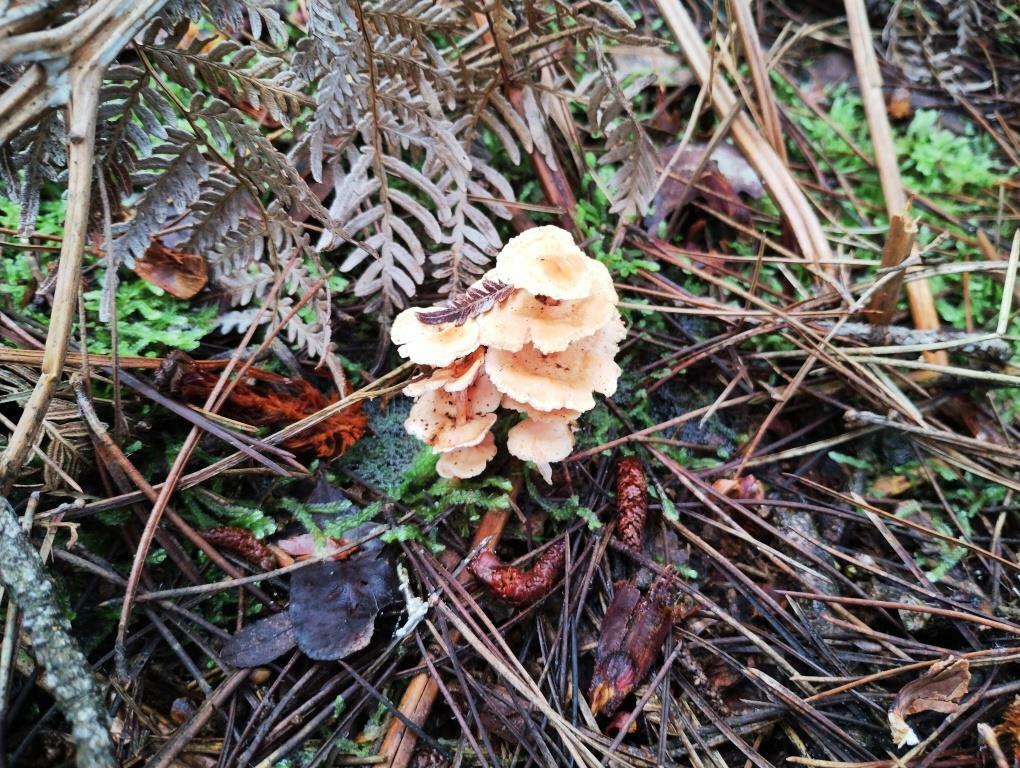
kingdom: Fungi
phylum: Basidiomycota
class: Agaricomycetes
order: Amylocorticiales
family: Amylocorticiaceae
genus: Podoserpula
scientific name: Podoserpula pusio
